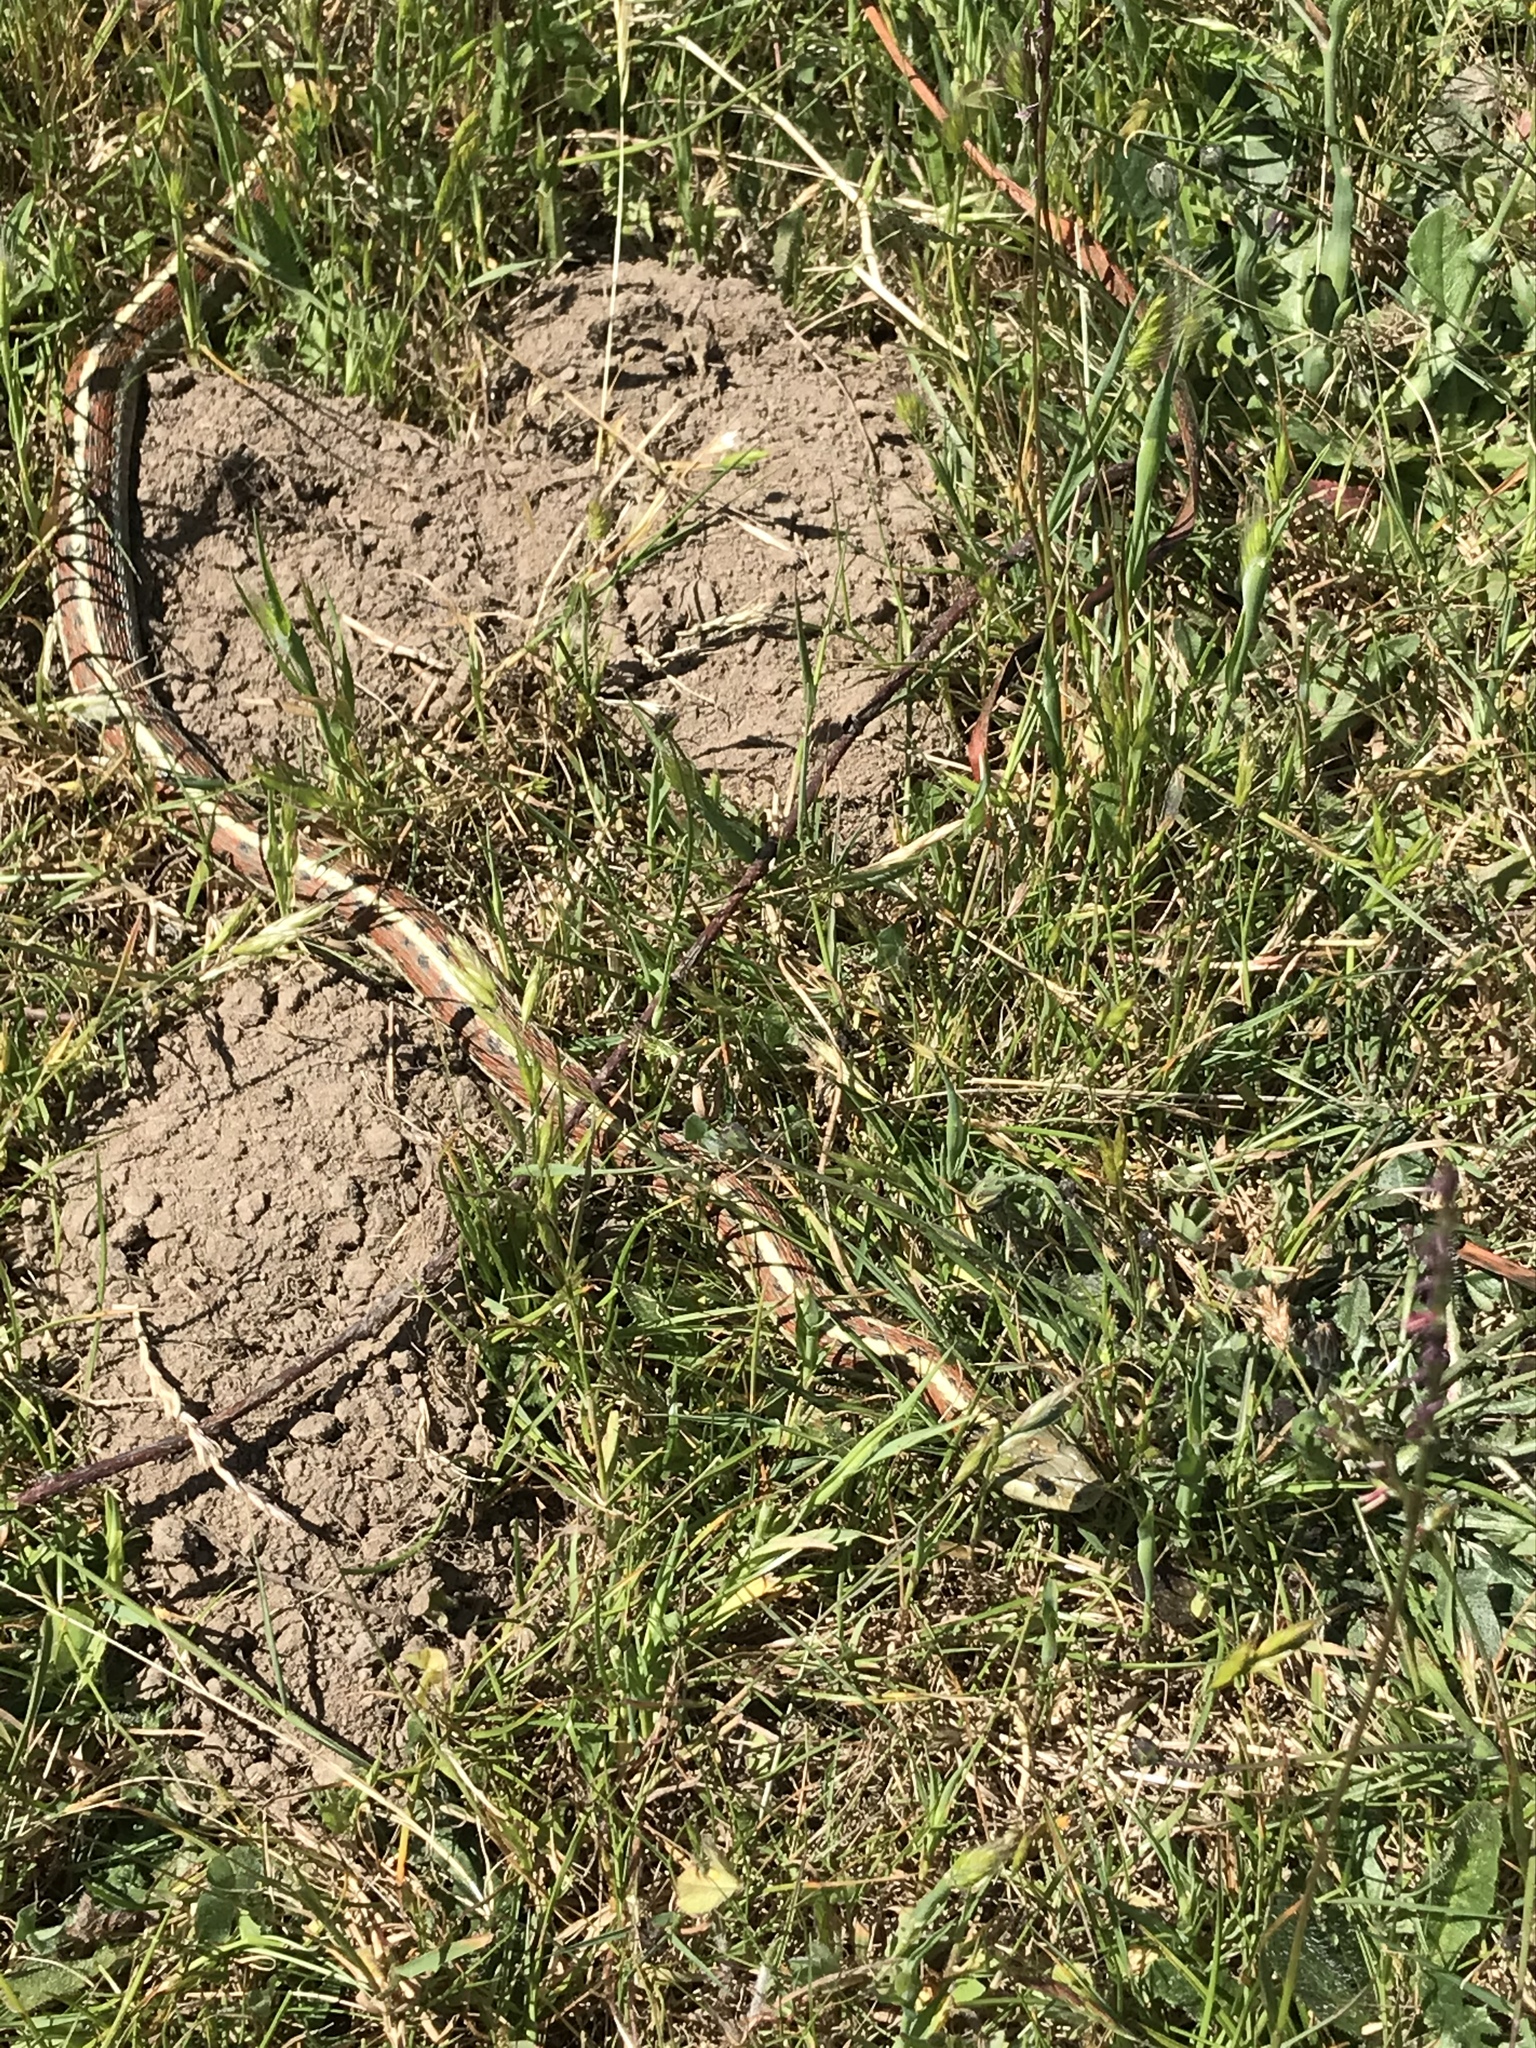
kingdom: Animalia
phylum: Chordata
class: Squamata
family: Colubridae
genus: Thamnophis
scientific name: Thamnophis elegans
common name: Western terrestrial garter snake
